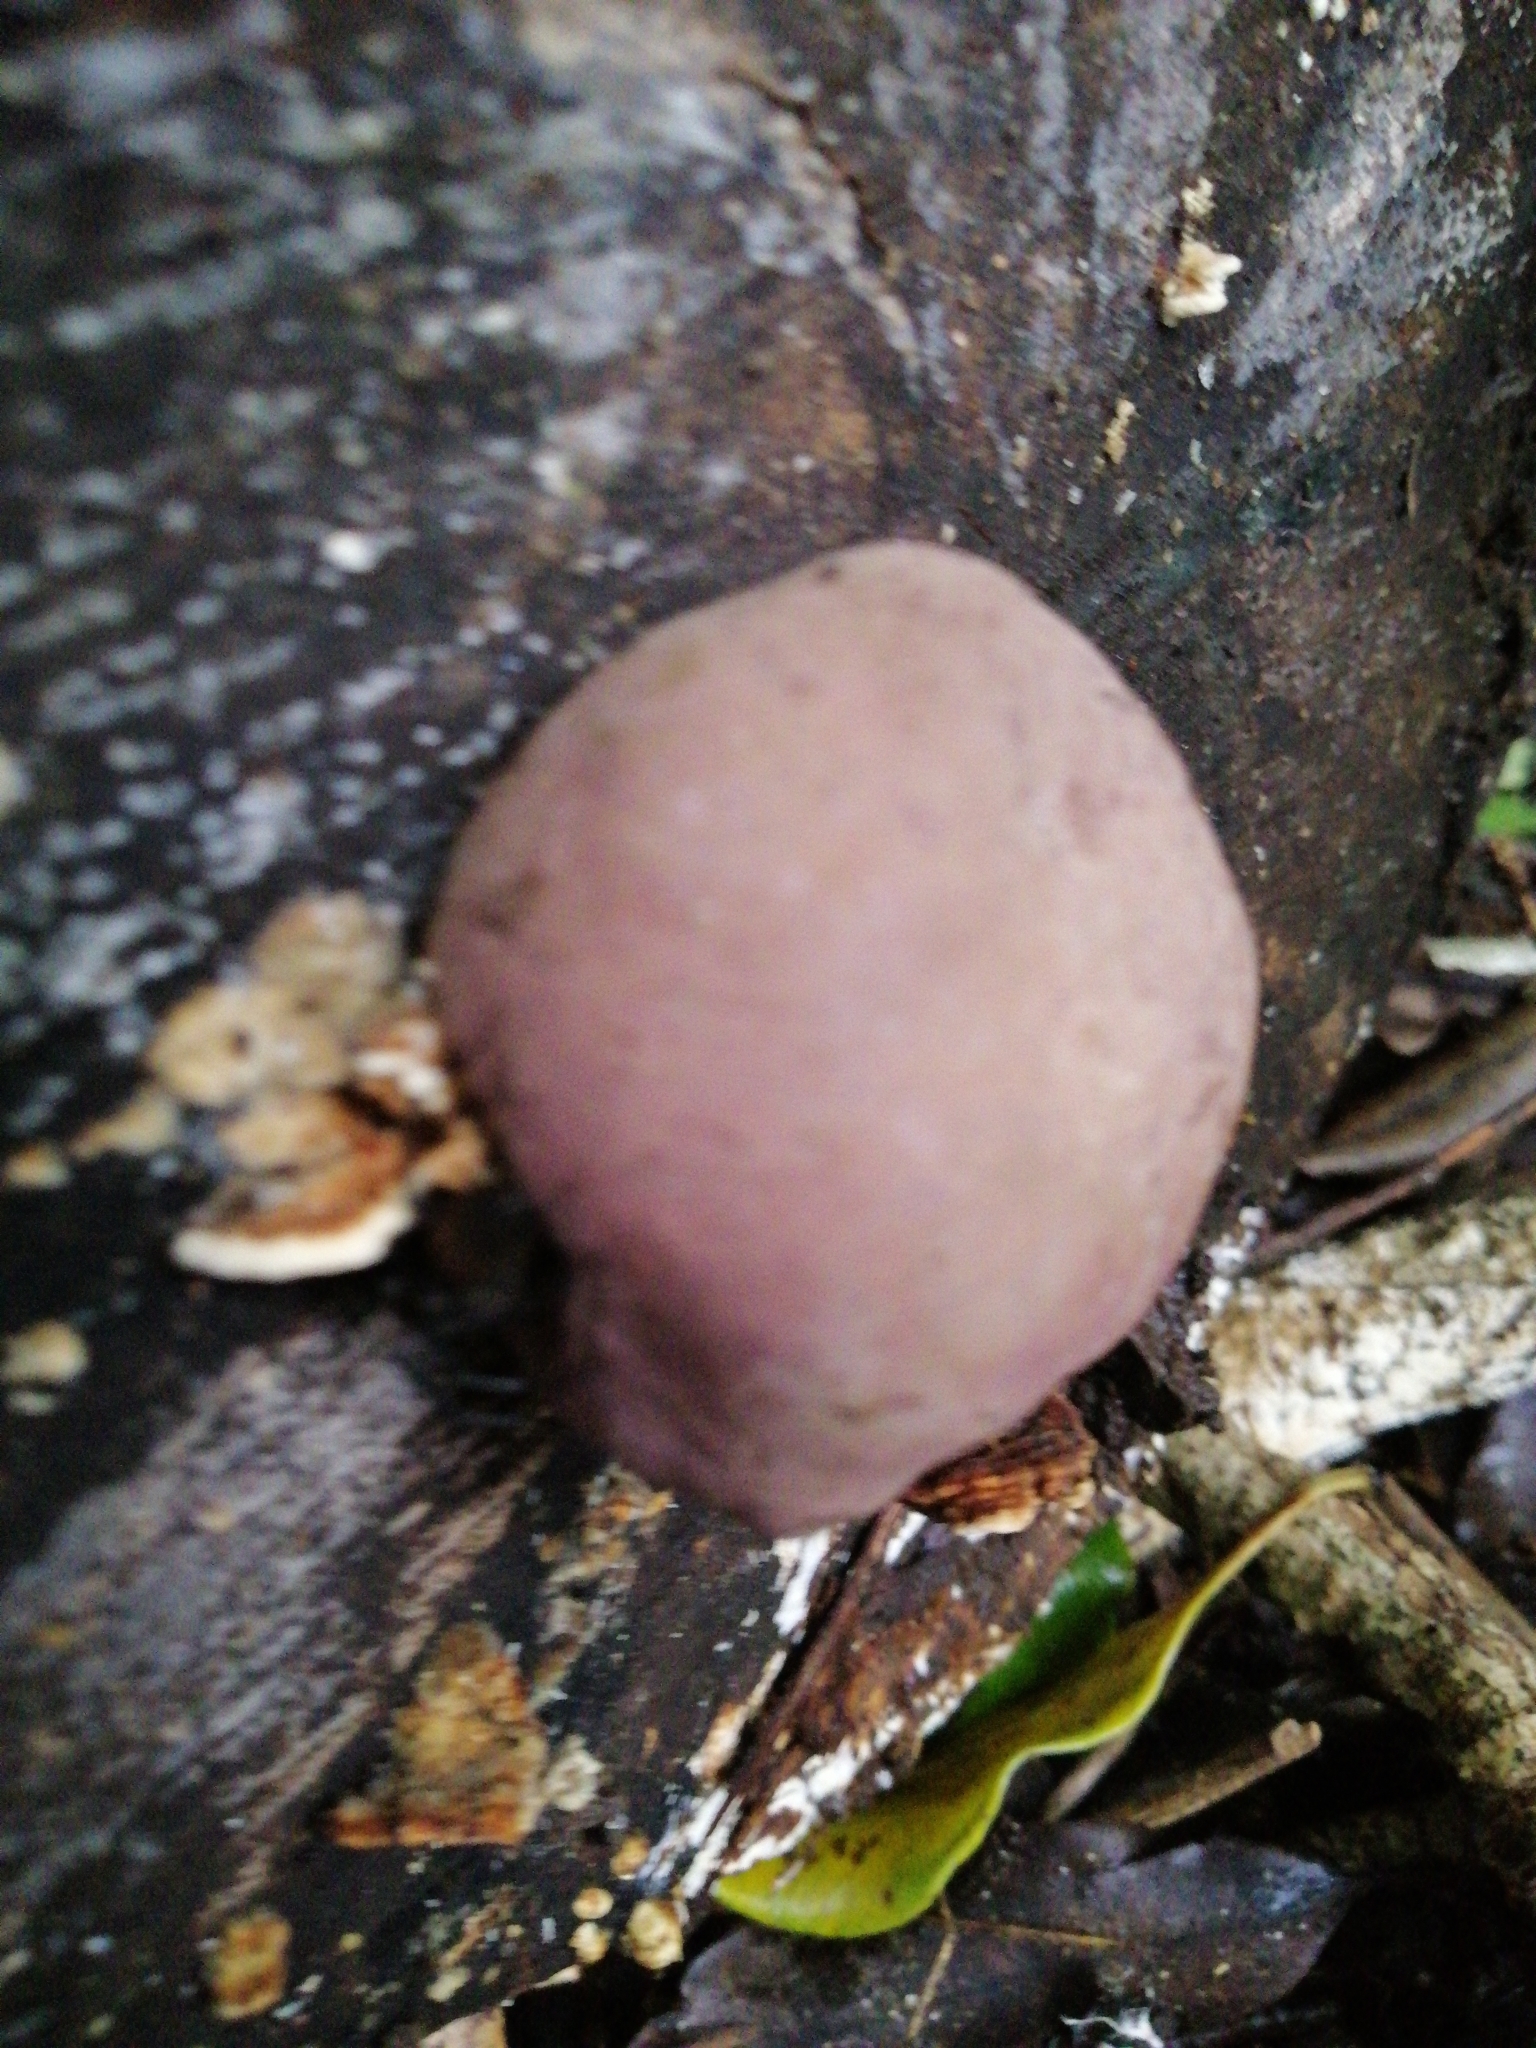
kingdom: Fungi
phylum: Ascomycota
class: Sordariomycetes
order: Xylariales
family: Hypoxylaceae
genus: Daldinia
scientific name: Daldinia
